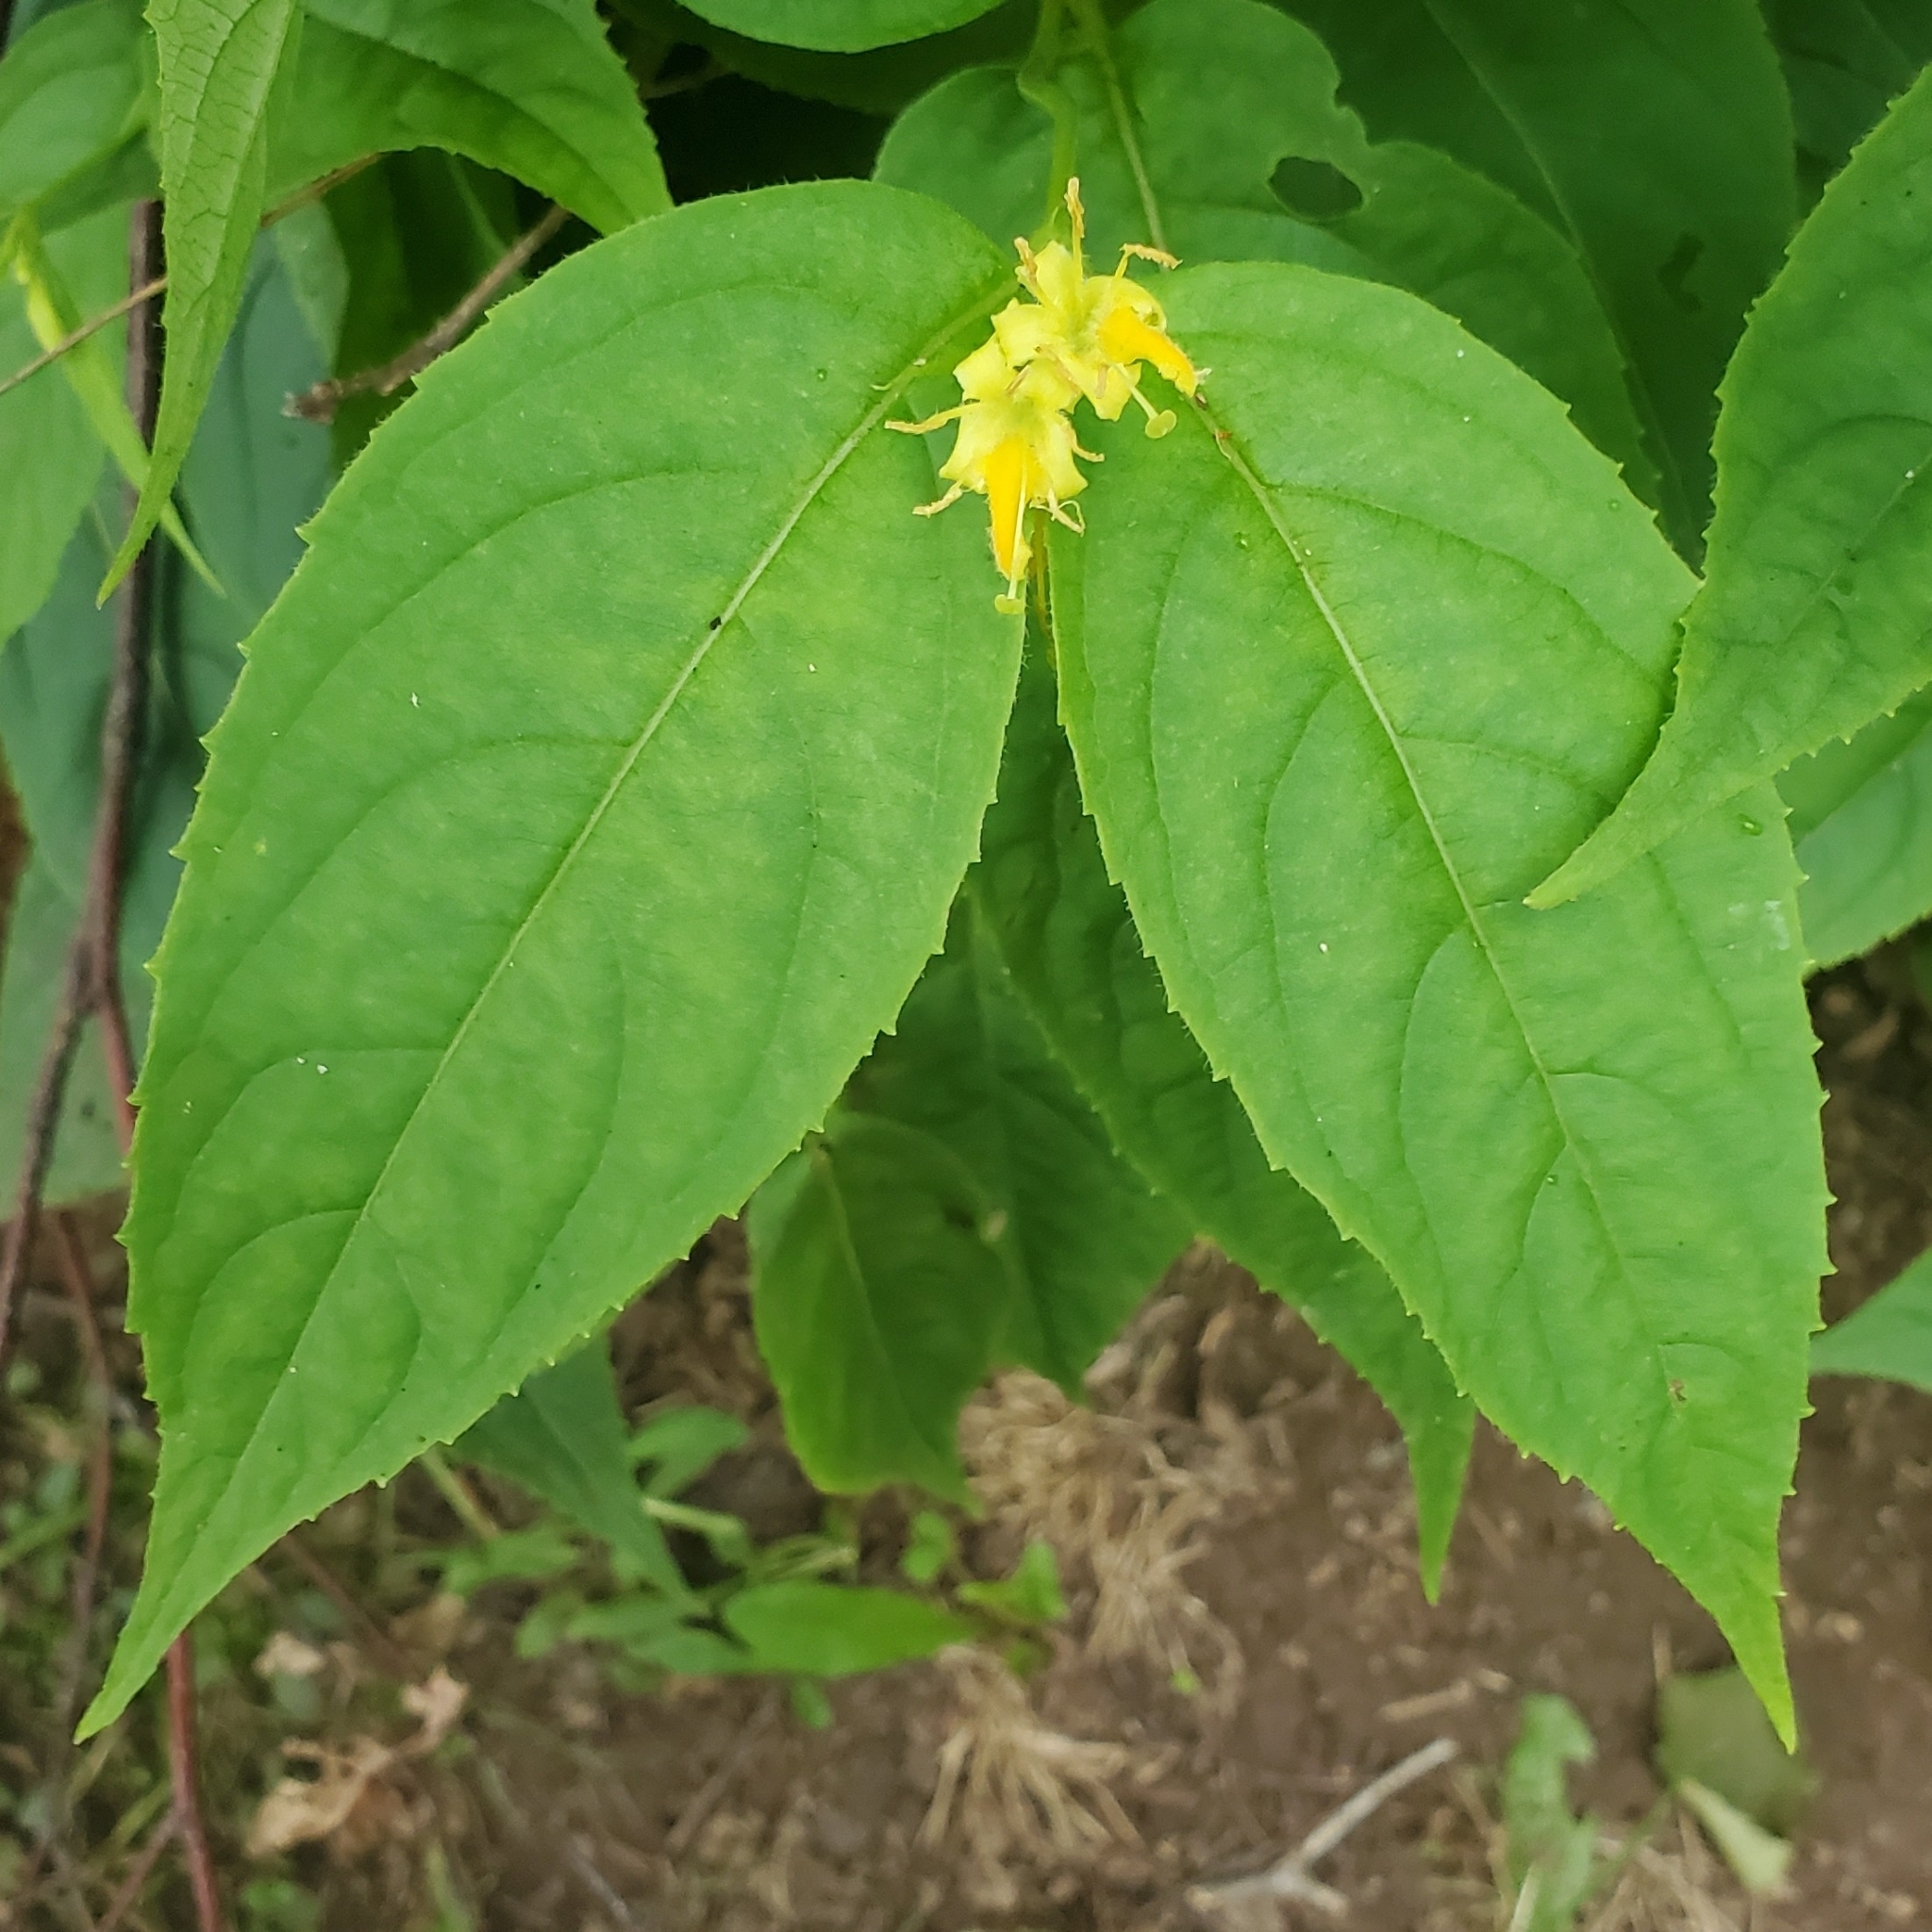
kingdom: Plantae
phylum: Tracheophyta
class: Magnoliopsida
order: Dipsacales
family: Caprifoliaceae
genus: Diervilla
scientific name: Diervilla lonicera
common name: Bush-honeysuckle
